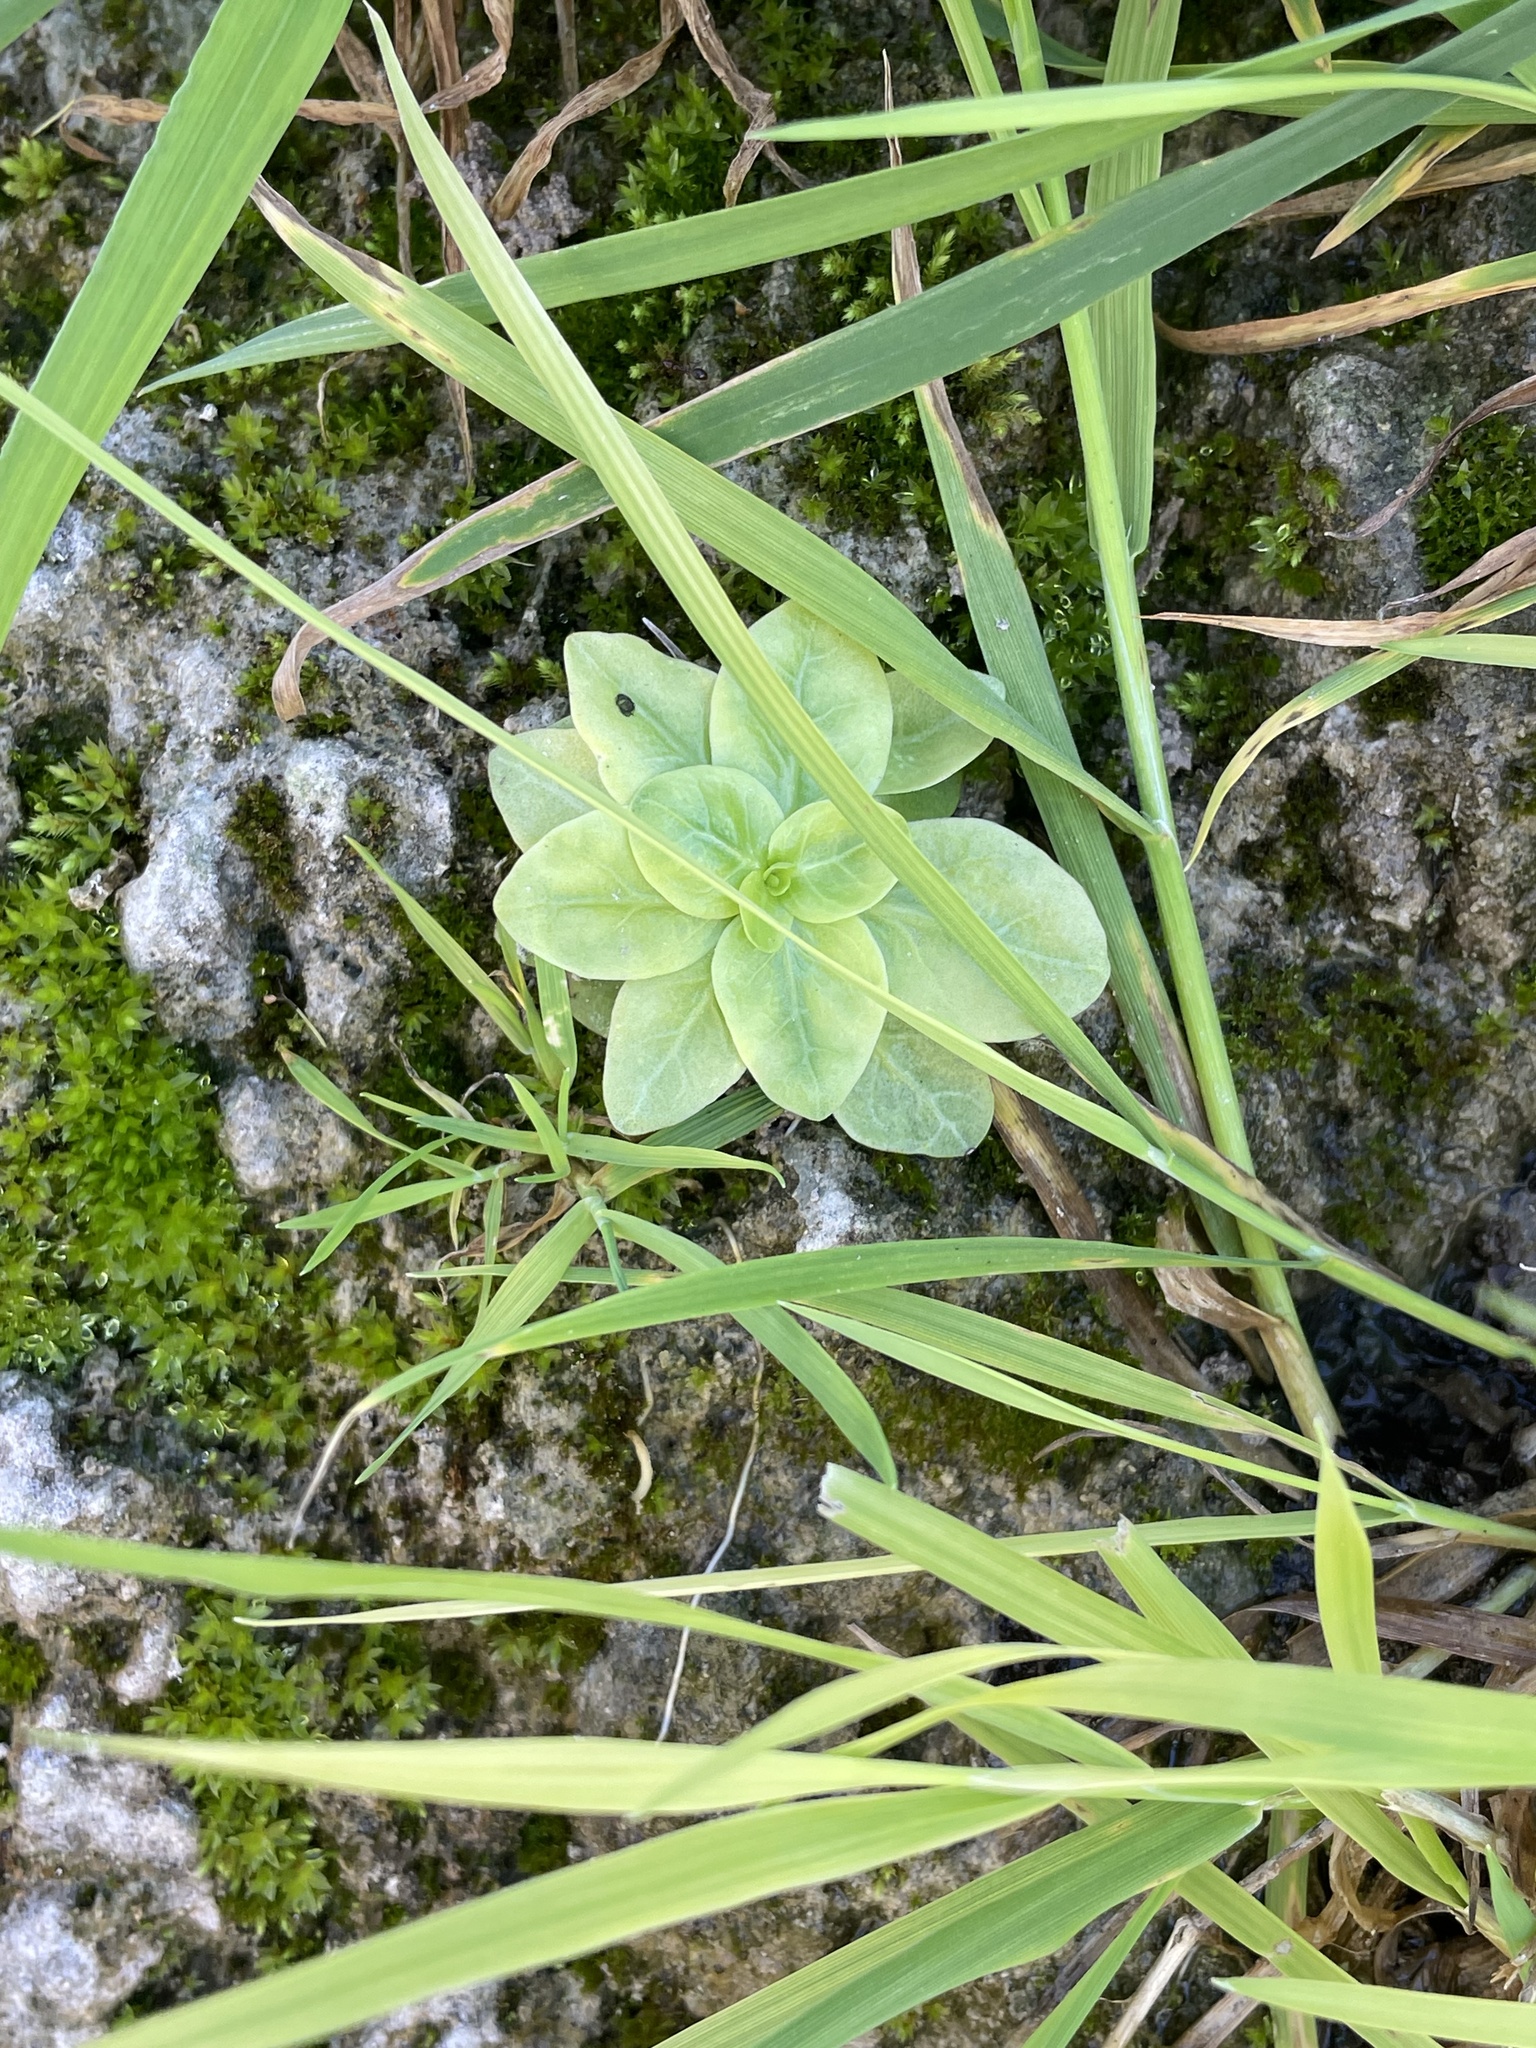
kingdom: Plantae
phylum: Tracheophyta
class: Magnoliopsida
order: Ericales
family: Primulaceae
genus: Samolus
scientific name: Samolus parviflorus
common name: False water pimpernel
